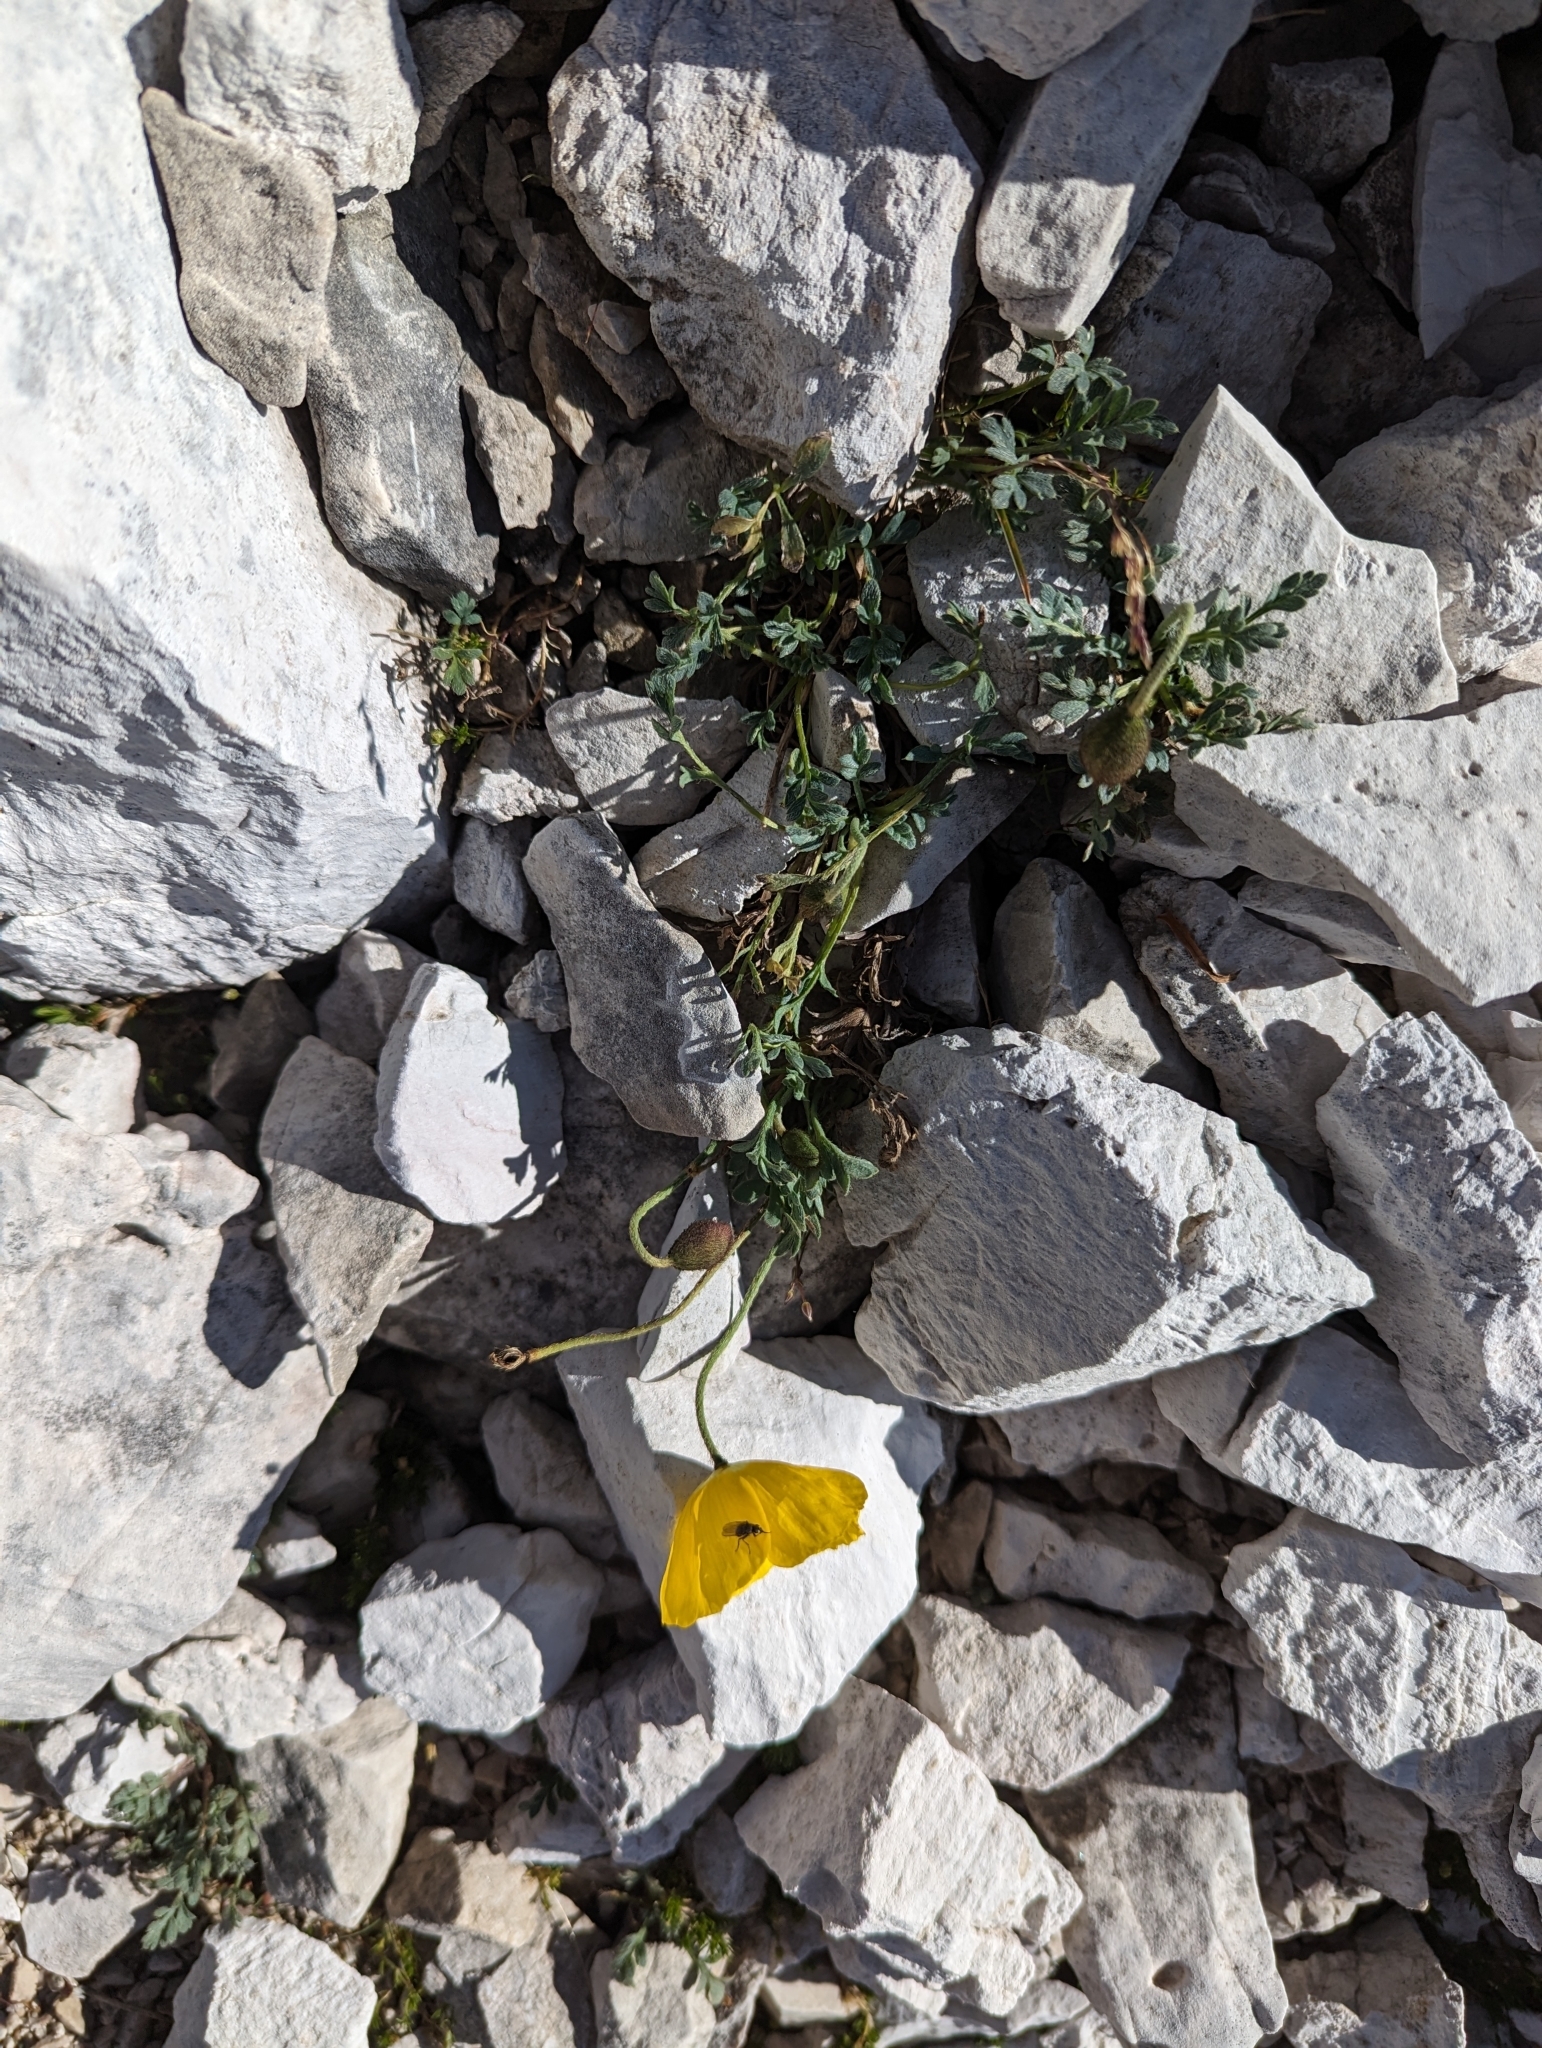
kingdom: Plantae
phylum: Tracheophyta
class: Magnoliopsida
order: Ranunculales
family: Papaveraceae
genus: Papaver
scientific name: Papaver alpinum
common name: Austrian poppy
